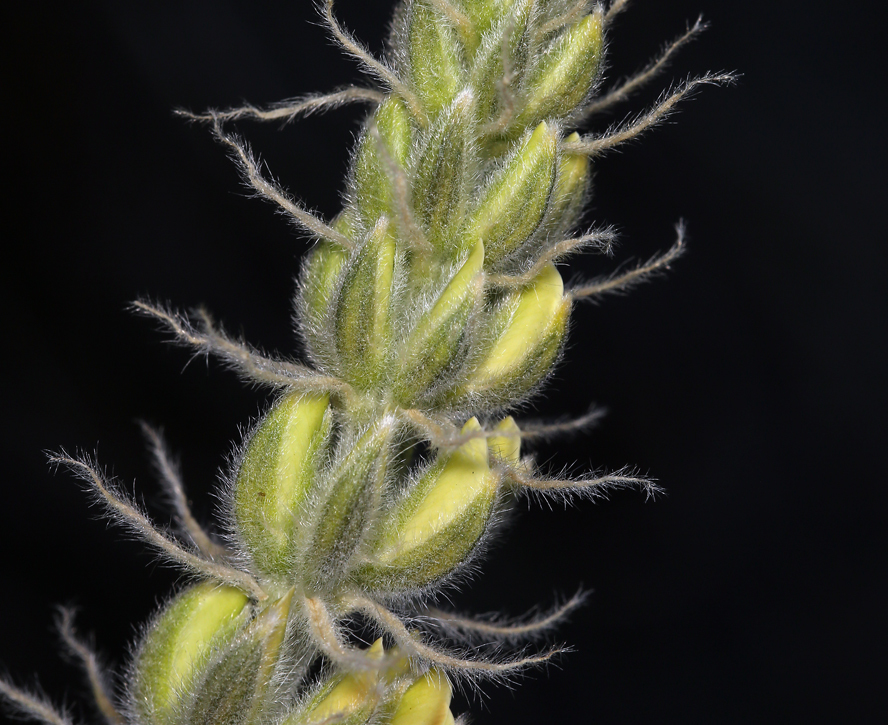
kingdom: Plantae
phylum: Tracheophyta
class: Magnoliopsida
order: Fabales
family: Fabaceae
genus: Lupinus
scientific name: Lupinus padre-crowleyi
